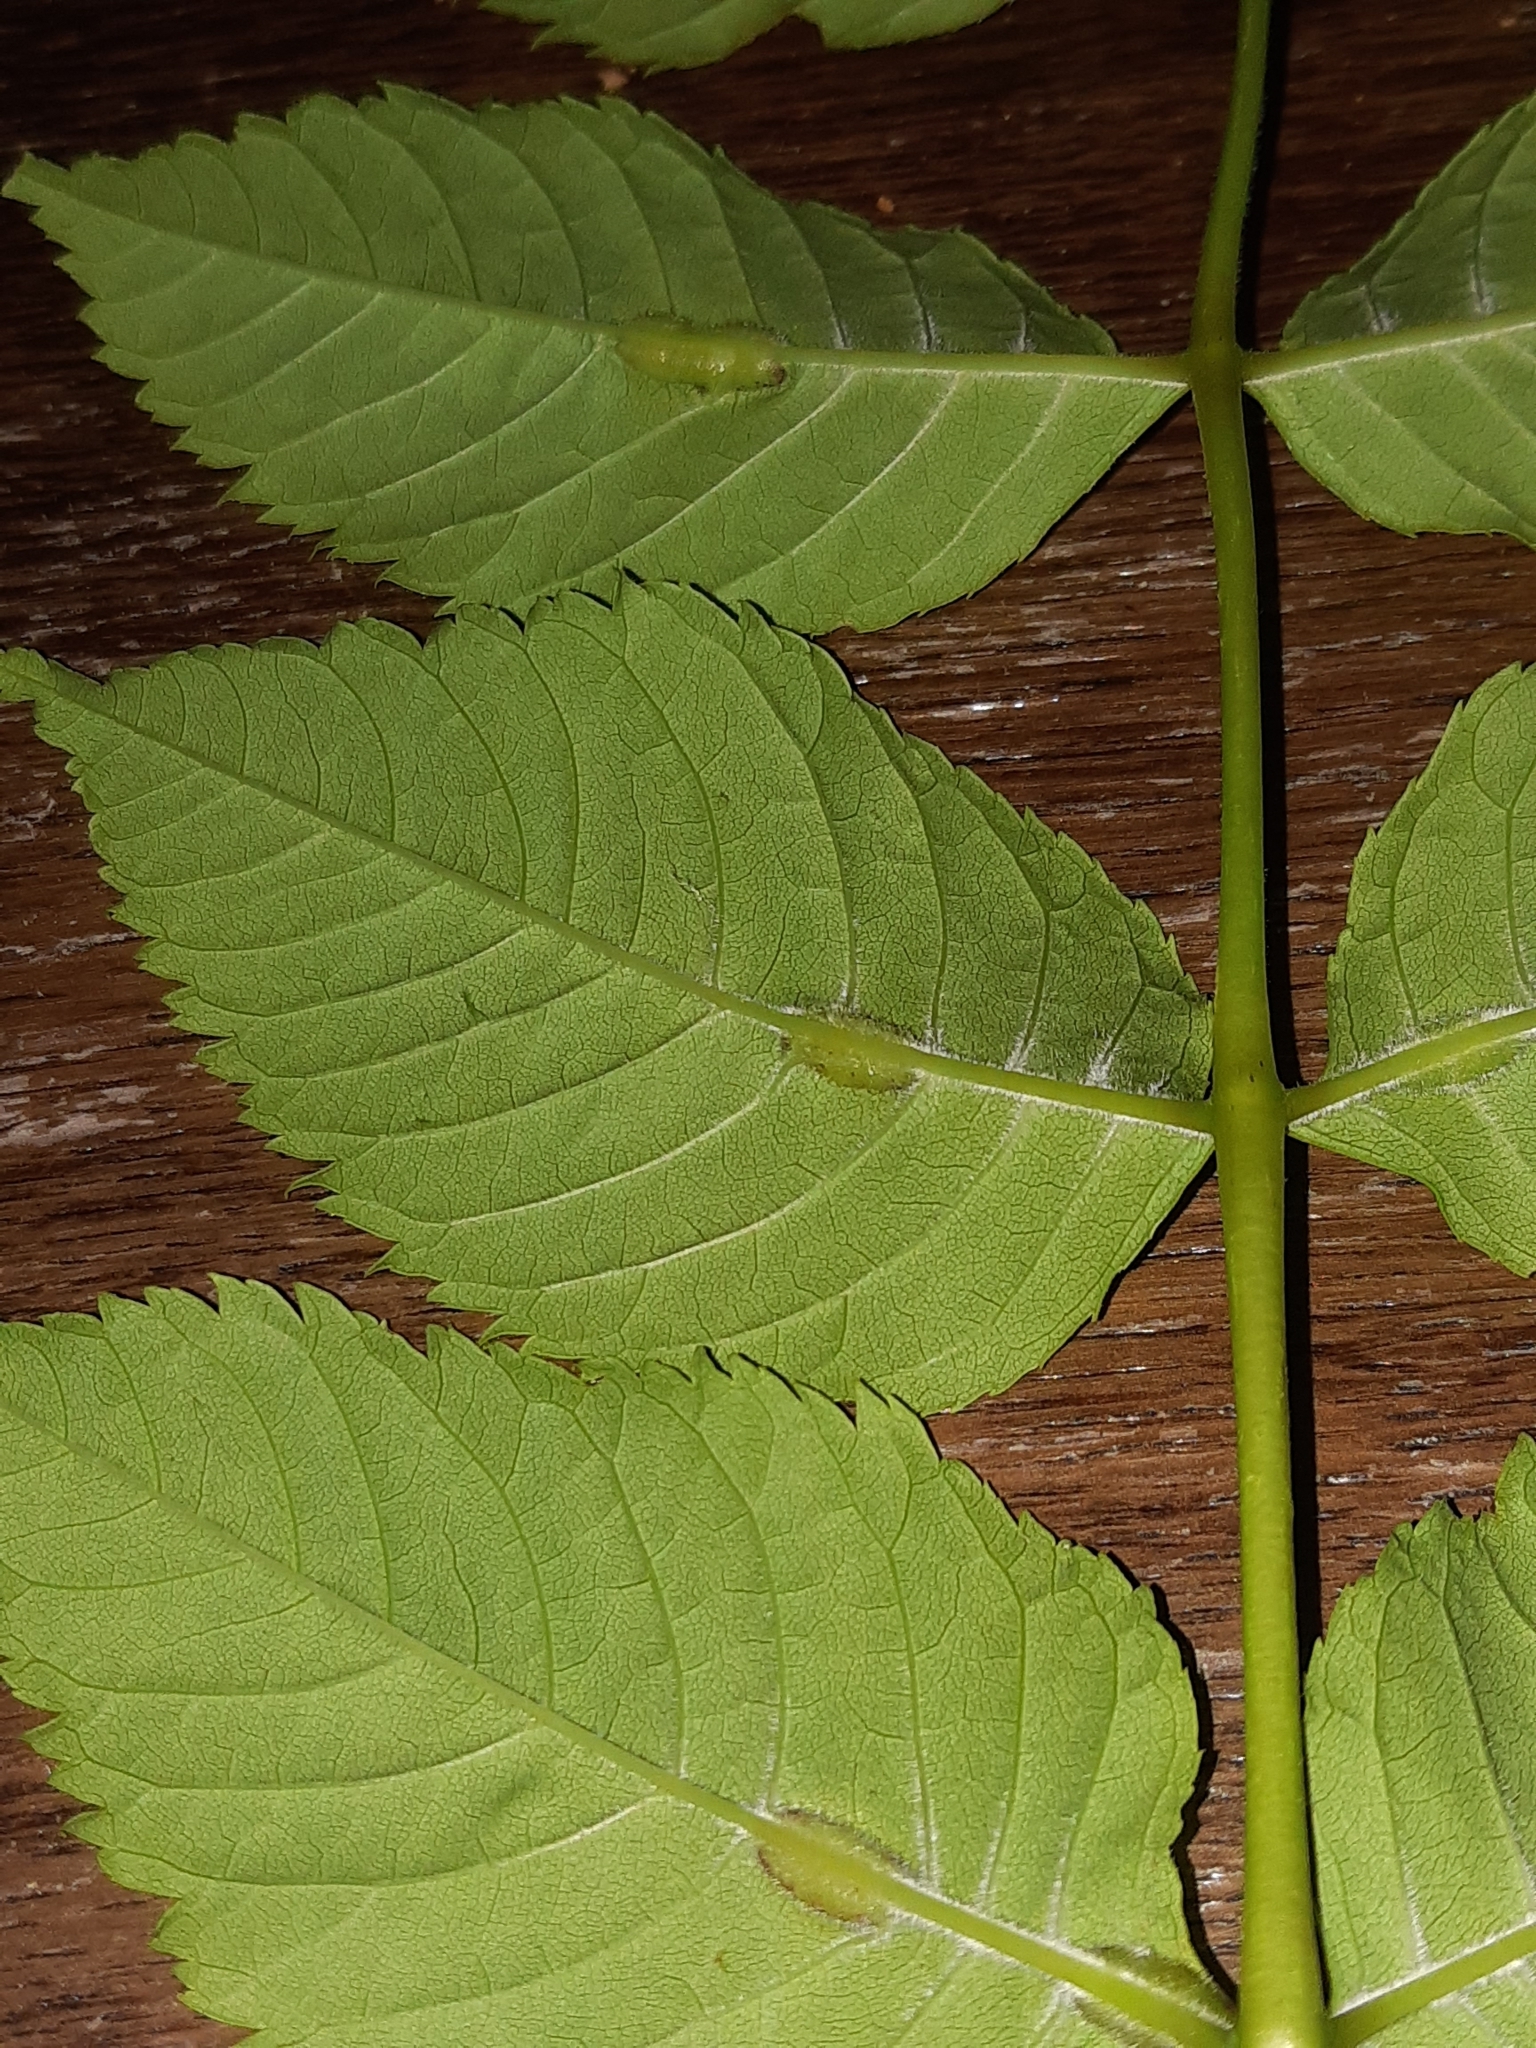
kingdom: Animalia
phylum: Arthropoda
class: Insecta
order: Diptera
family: Cecidomyiidae
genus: Dasineura
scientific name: Dasineura fraxini
